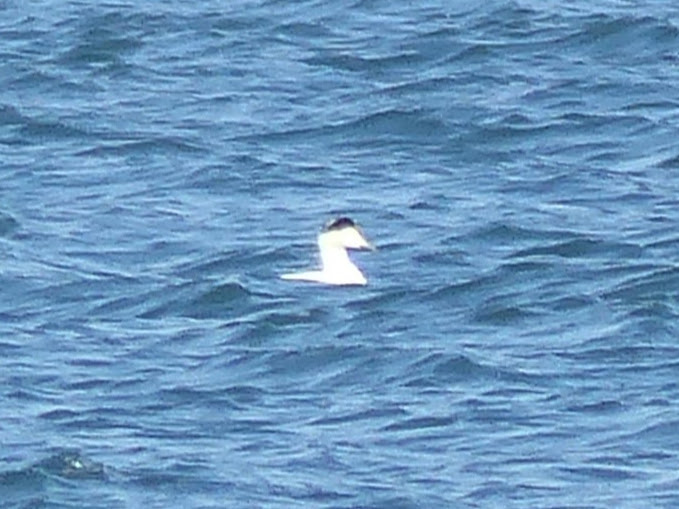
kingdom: Animalia
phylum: Chordata
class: Aves
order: Anseriformes
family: Anatidae
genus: Somateria
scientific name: Somateria mollissima
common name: Common eider
